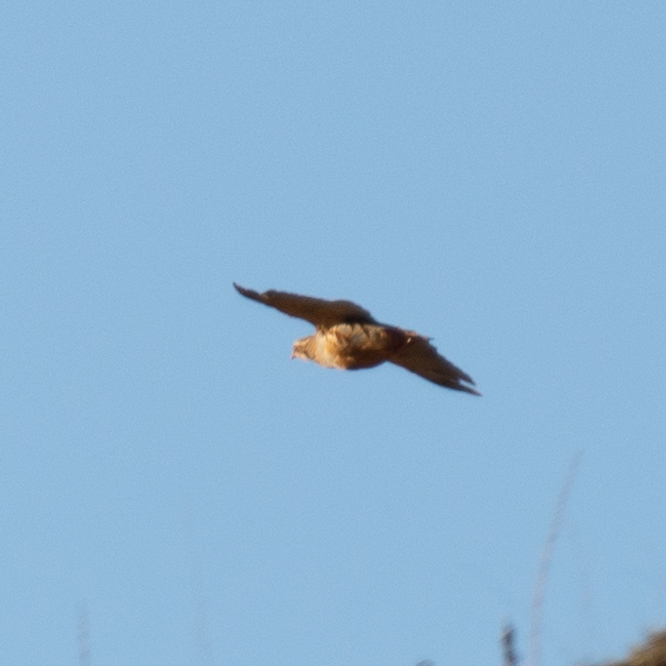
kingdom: Animalia
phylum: Chordata
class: Aves
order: Galliformes
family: Phasianidae
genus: Alectoris
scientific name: Alectoris rufa
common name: Red-legged partridge
